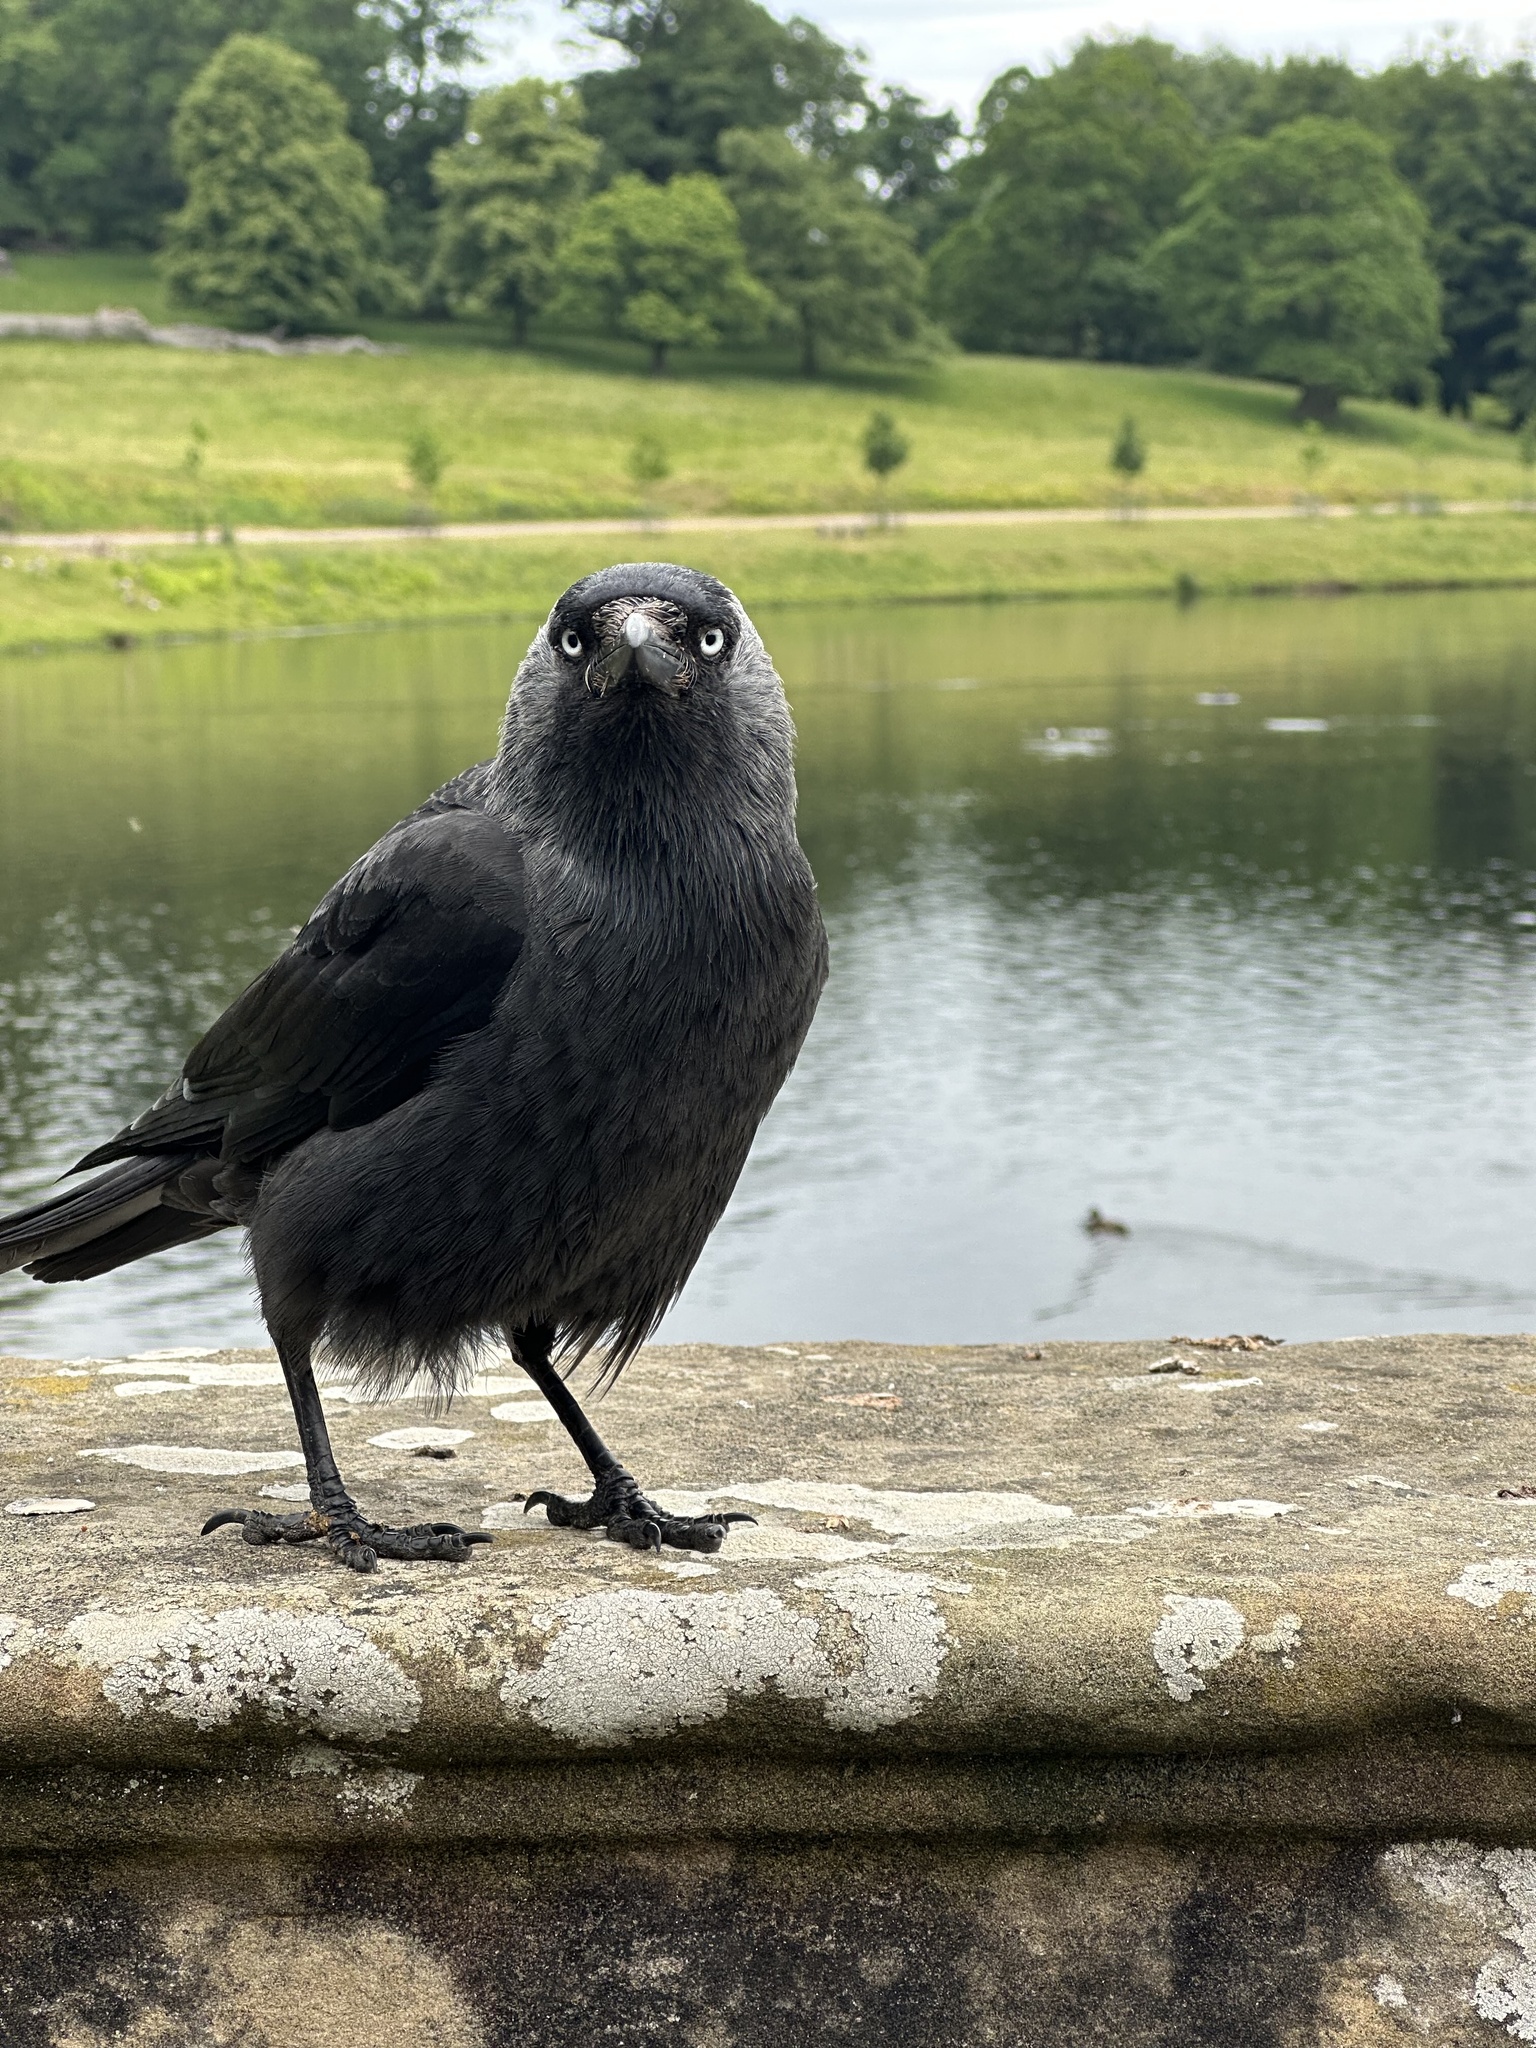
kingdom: Animalia
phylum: Chordata
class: Aves
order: Passeriformes
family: Corvidae
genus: Coloeus
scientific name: Coloeus monedula
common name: Western jackdaw
